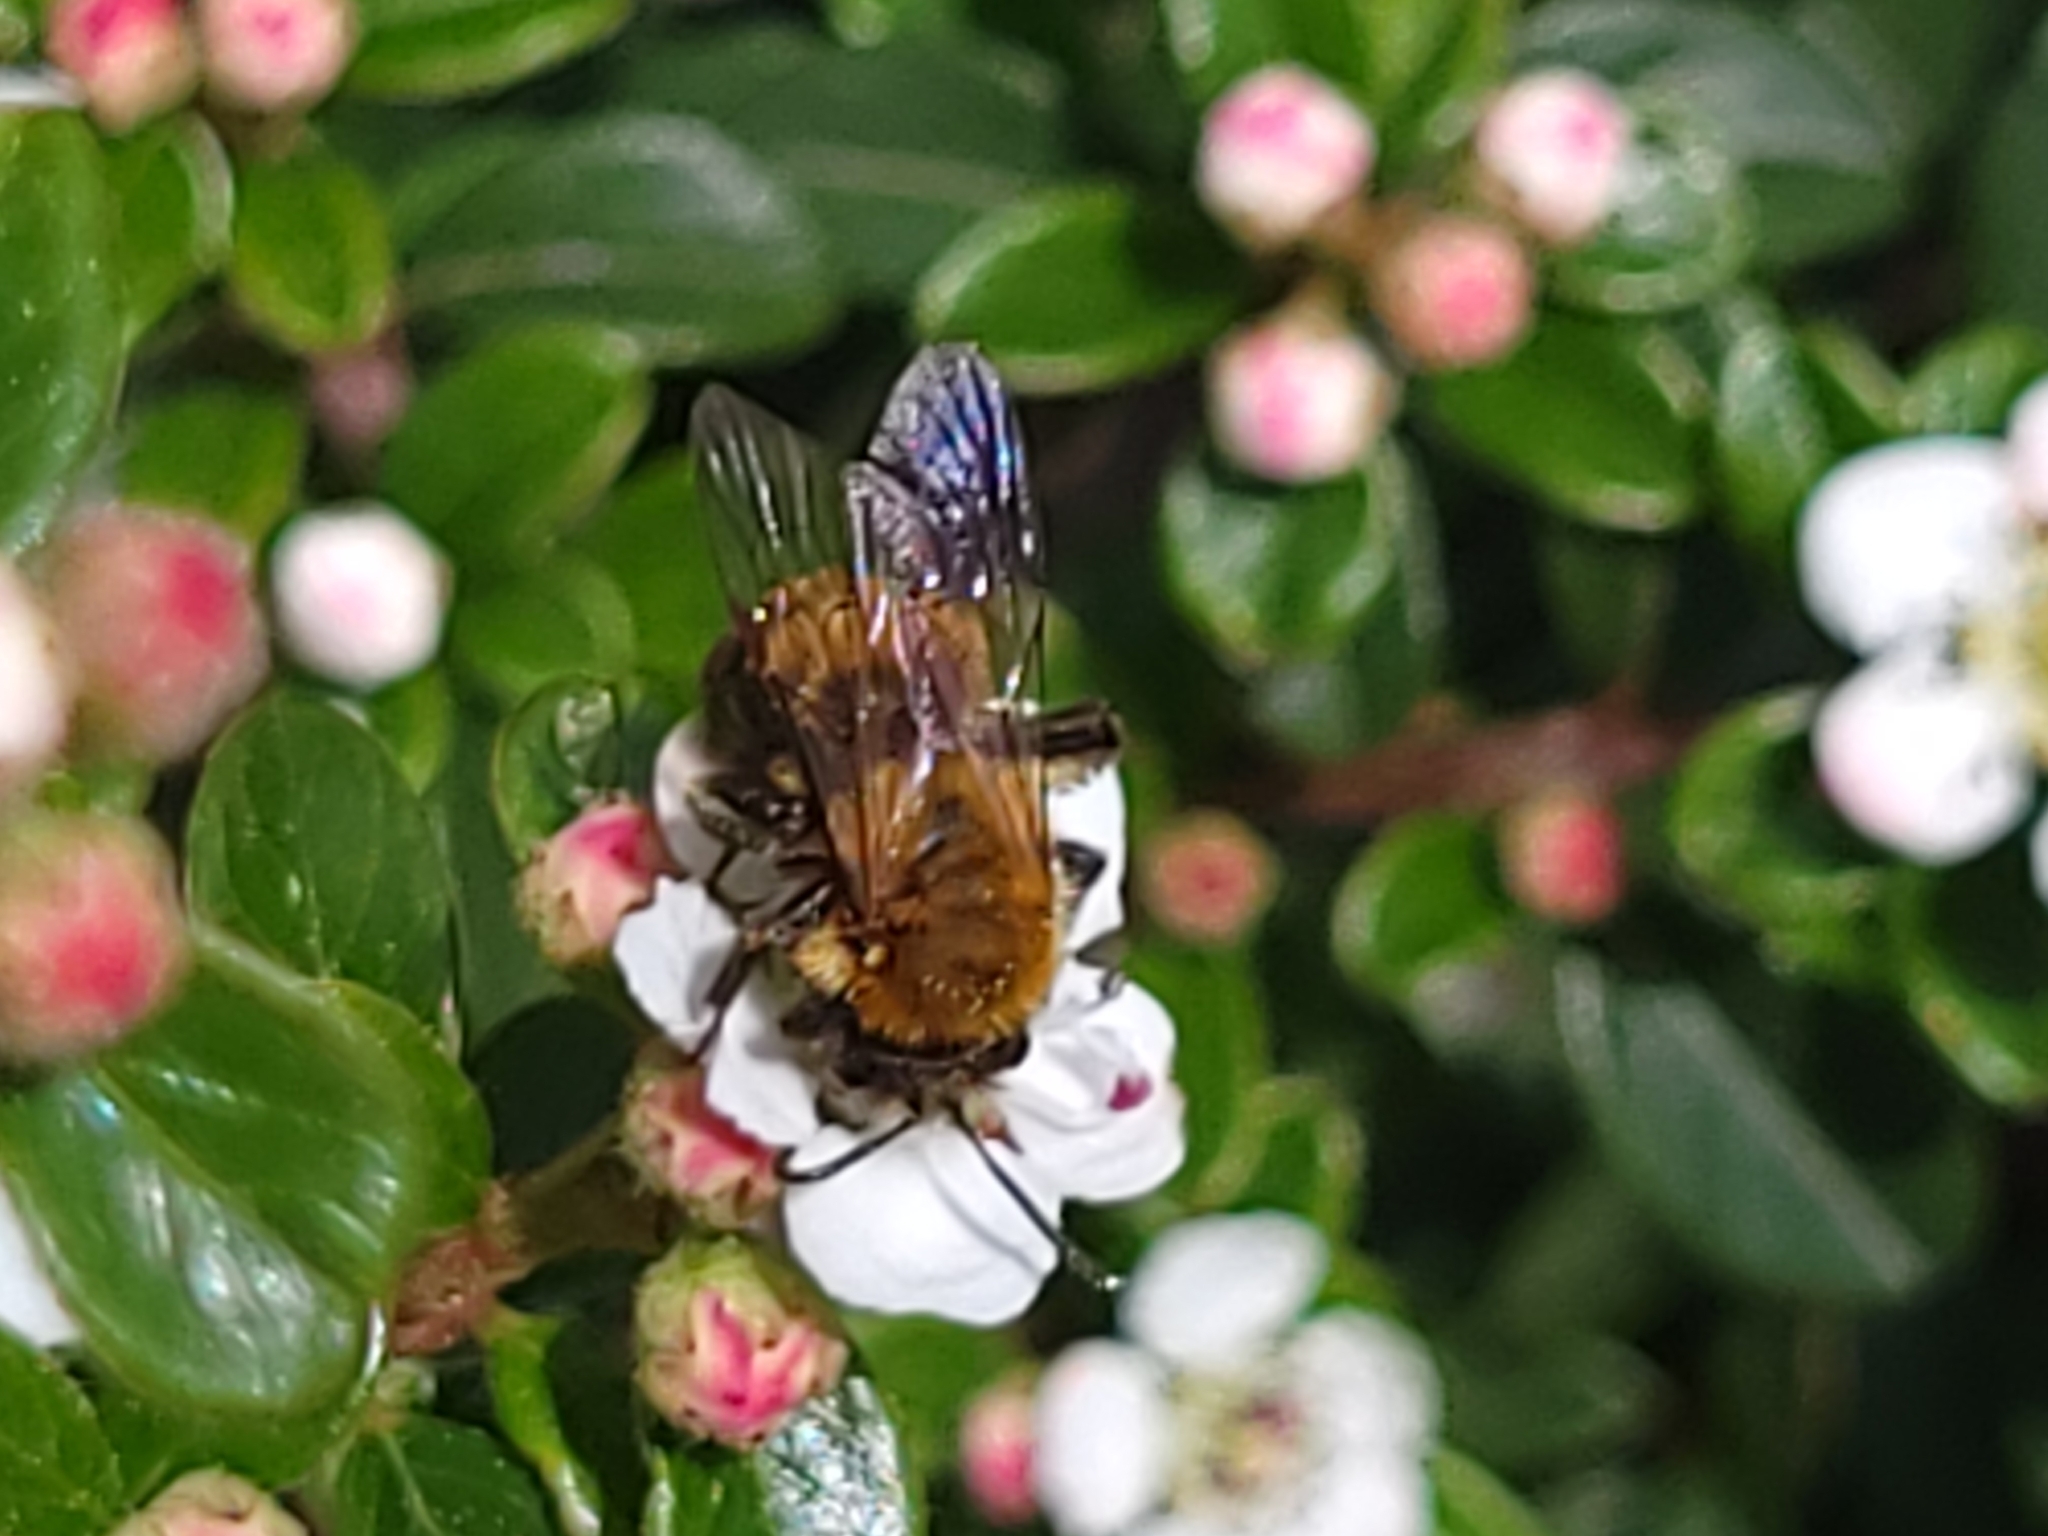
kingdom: Animalia
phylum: Arthropoda
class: Insecta
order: Hymenoptera
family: Andrenidae
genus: Andrena
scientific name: Andrena milwaukeensis
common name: Milwaukee mining bee
